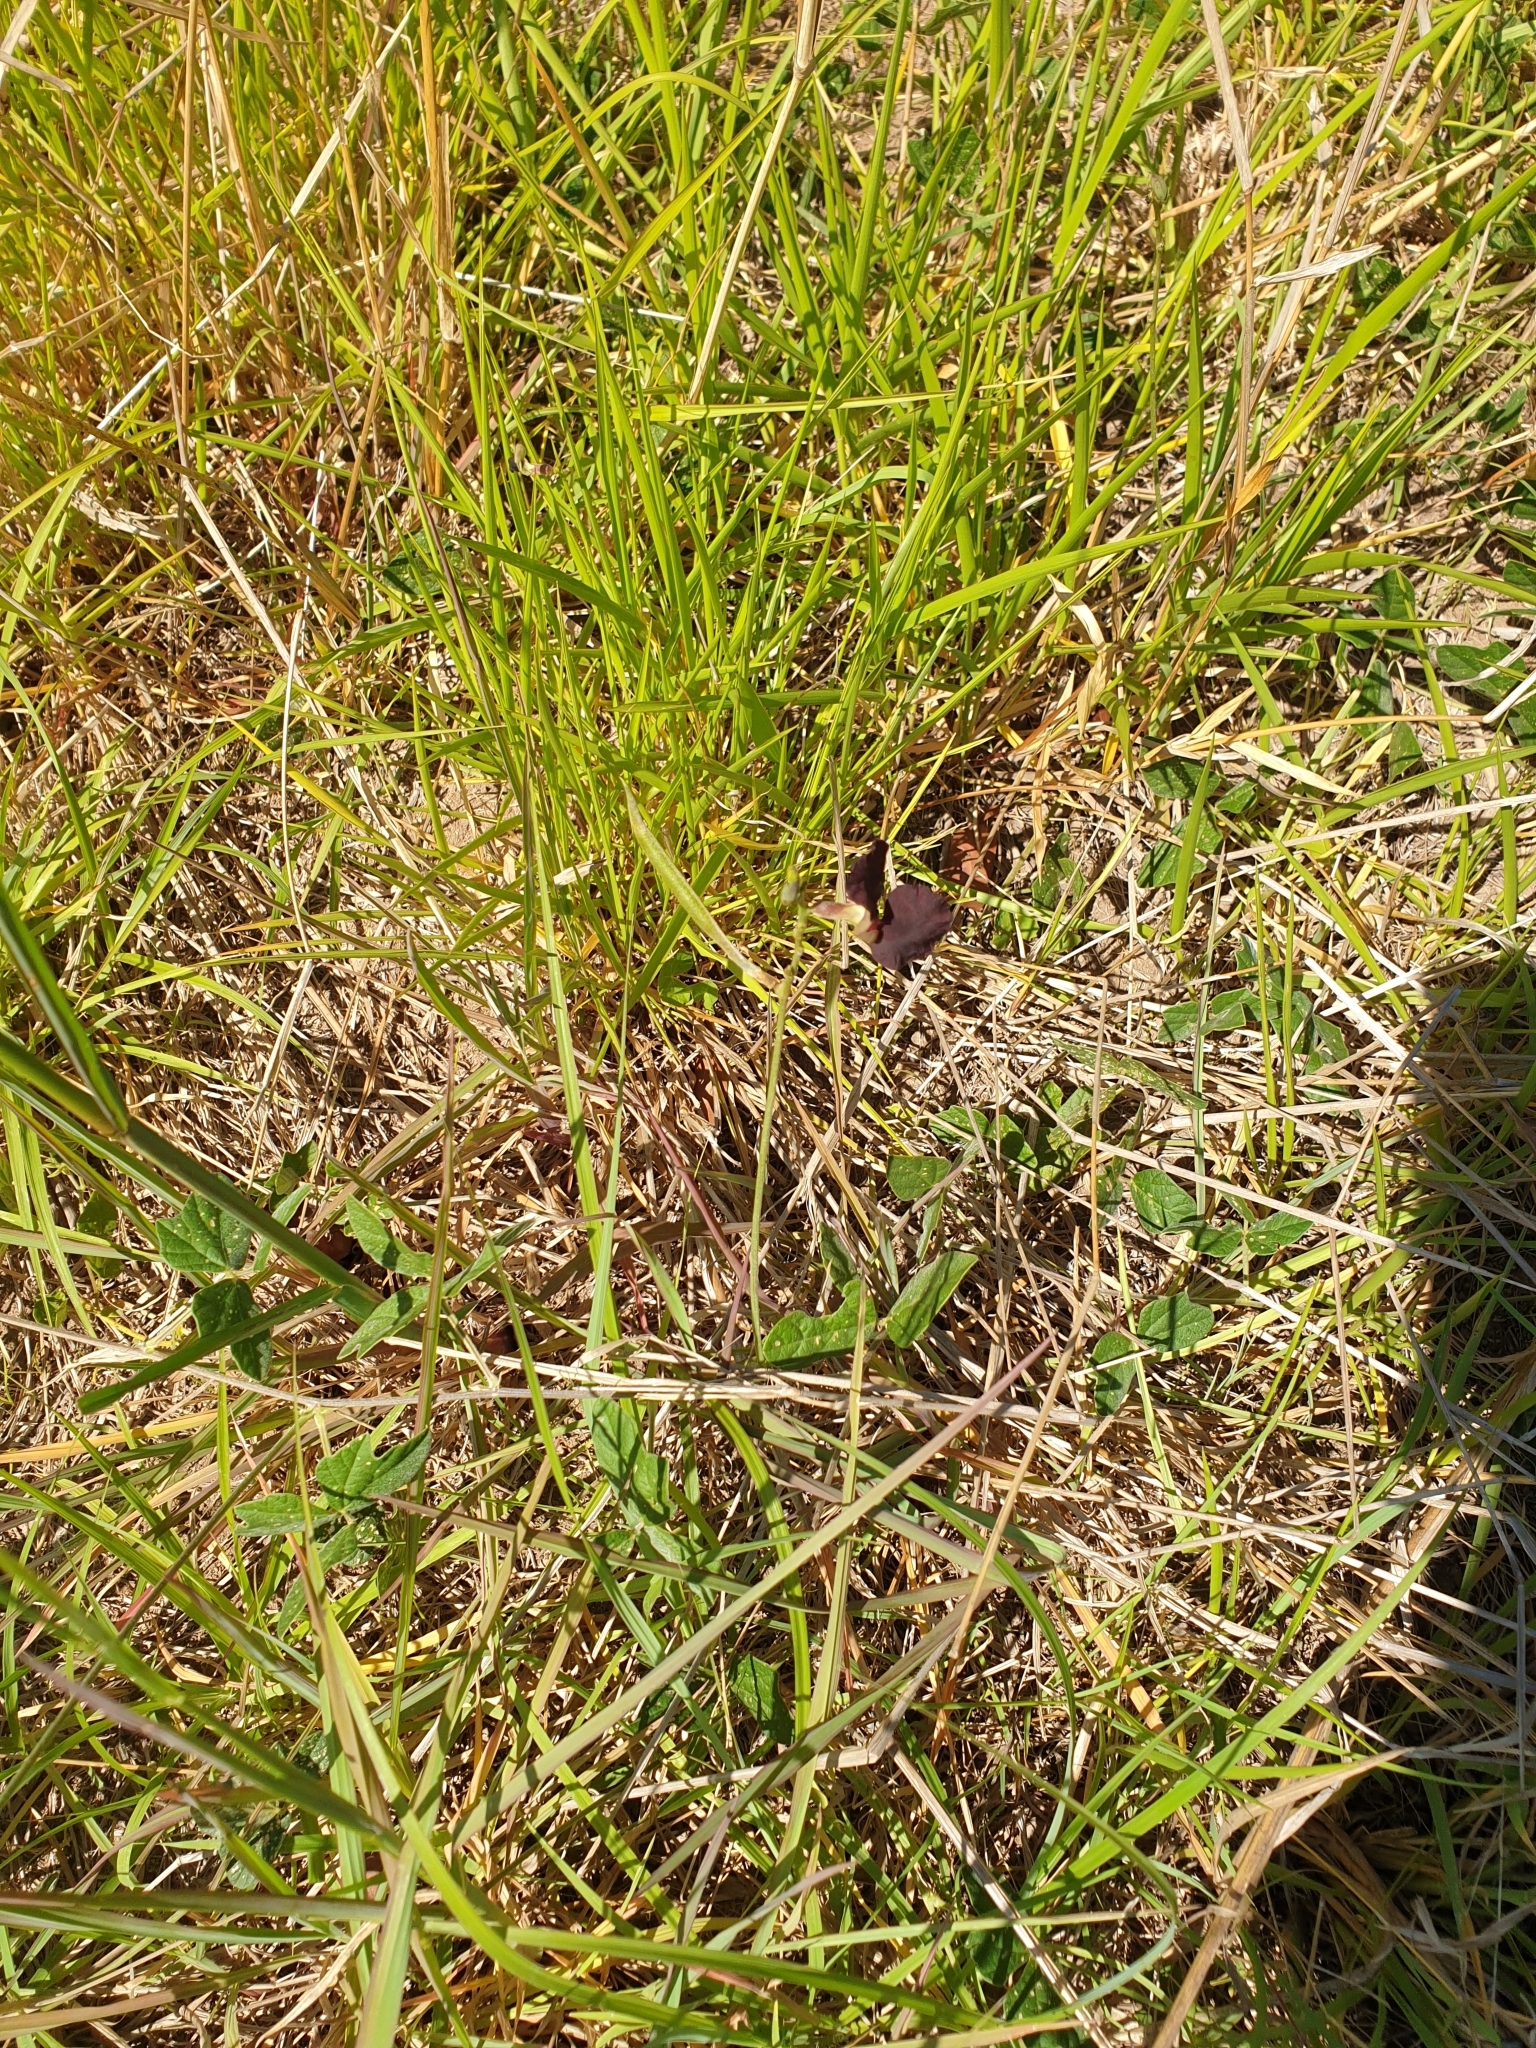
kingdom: Plantae
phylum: Tracheophyta
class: Magnoliopsida
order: Fabales
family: Fabaceae
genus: Macroptilium
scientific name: Macroptilium atropurpureum
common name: Purple bushbean
